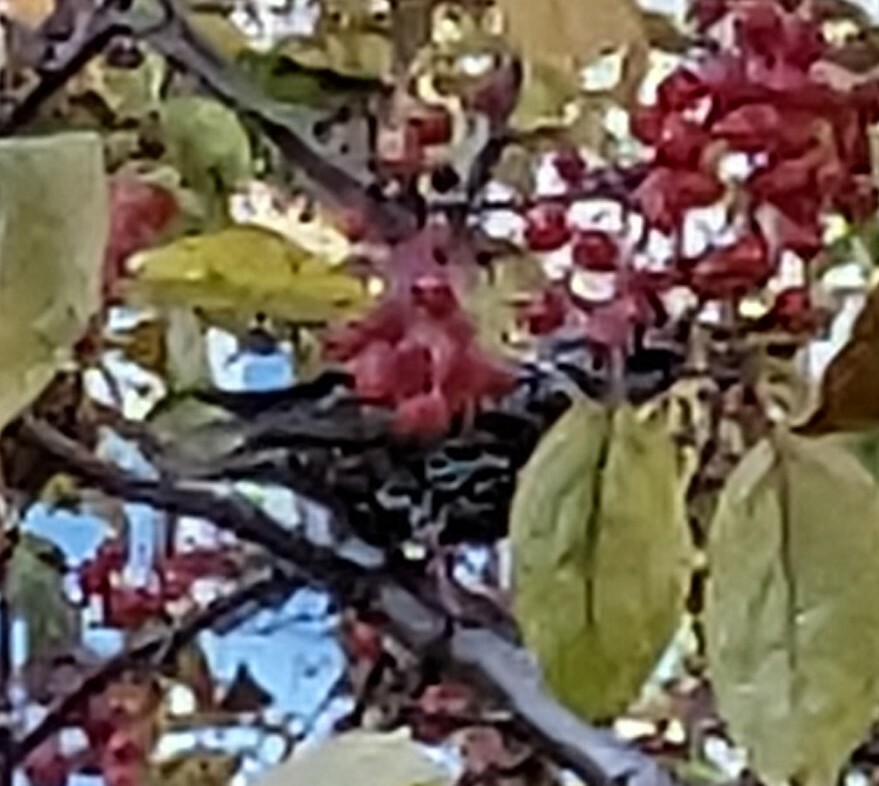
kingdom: Animalia
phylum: Chordata
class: Aves
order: Passeriformes
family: Sturnidae
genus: Sturnus
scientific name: Sturnus vulgaris
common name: Common starling
